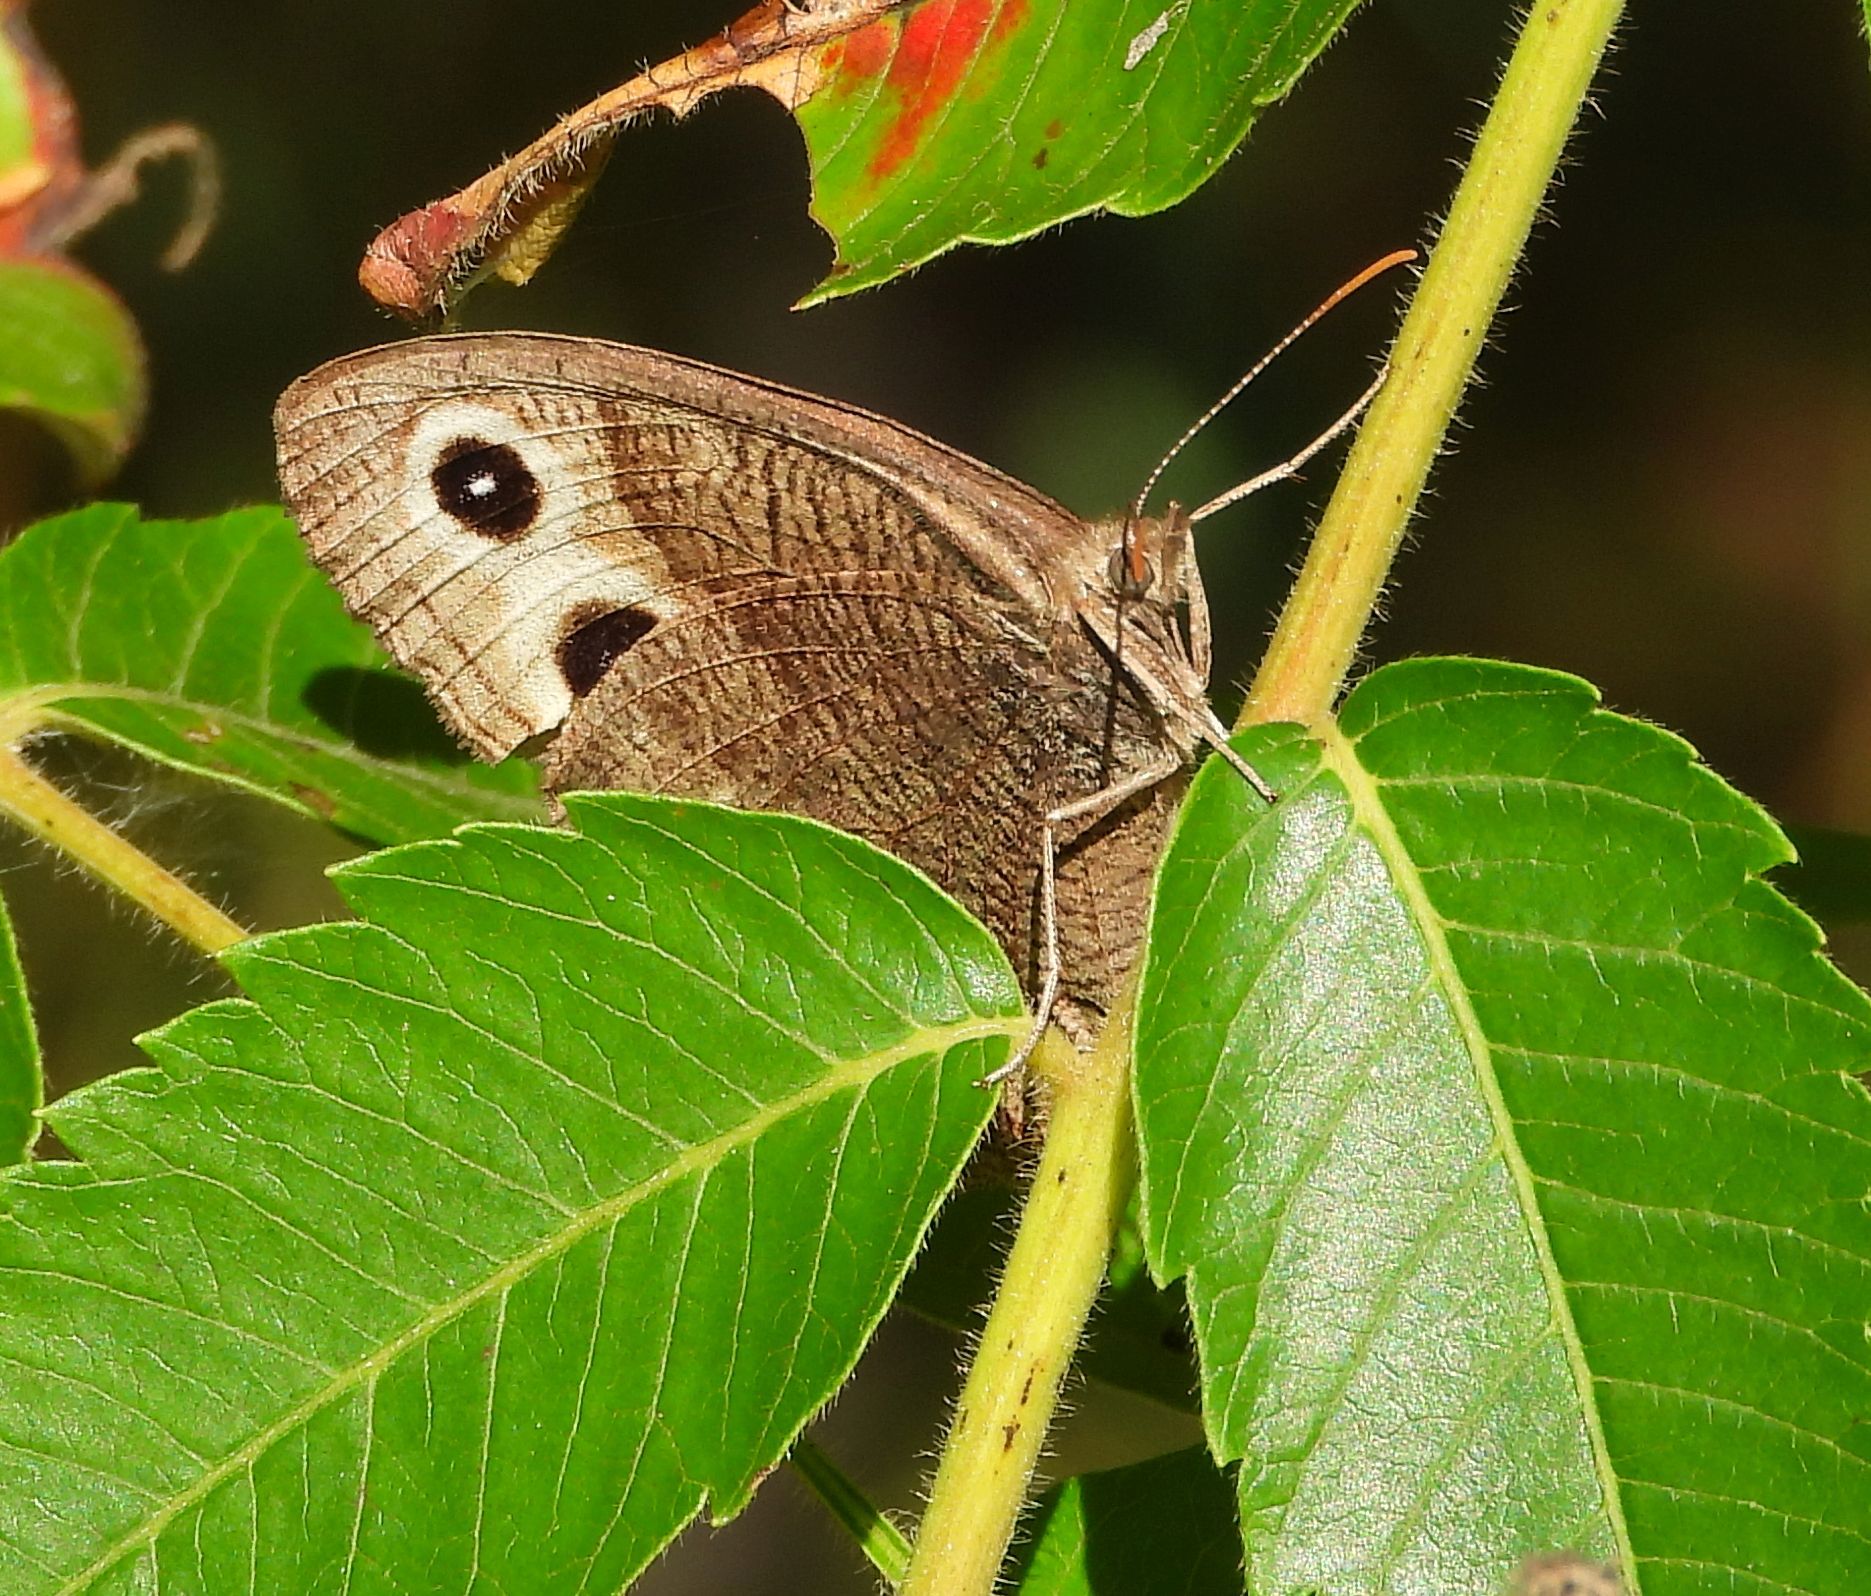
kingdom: Animalia
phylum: Arthropoda
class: Insecta
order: Lepidoptera
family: Nymphalidae
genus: Cercyonis
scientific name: Cercyonis pegala
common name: Common wood-nymph
